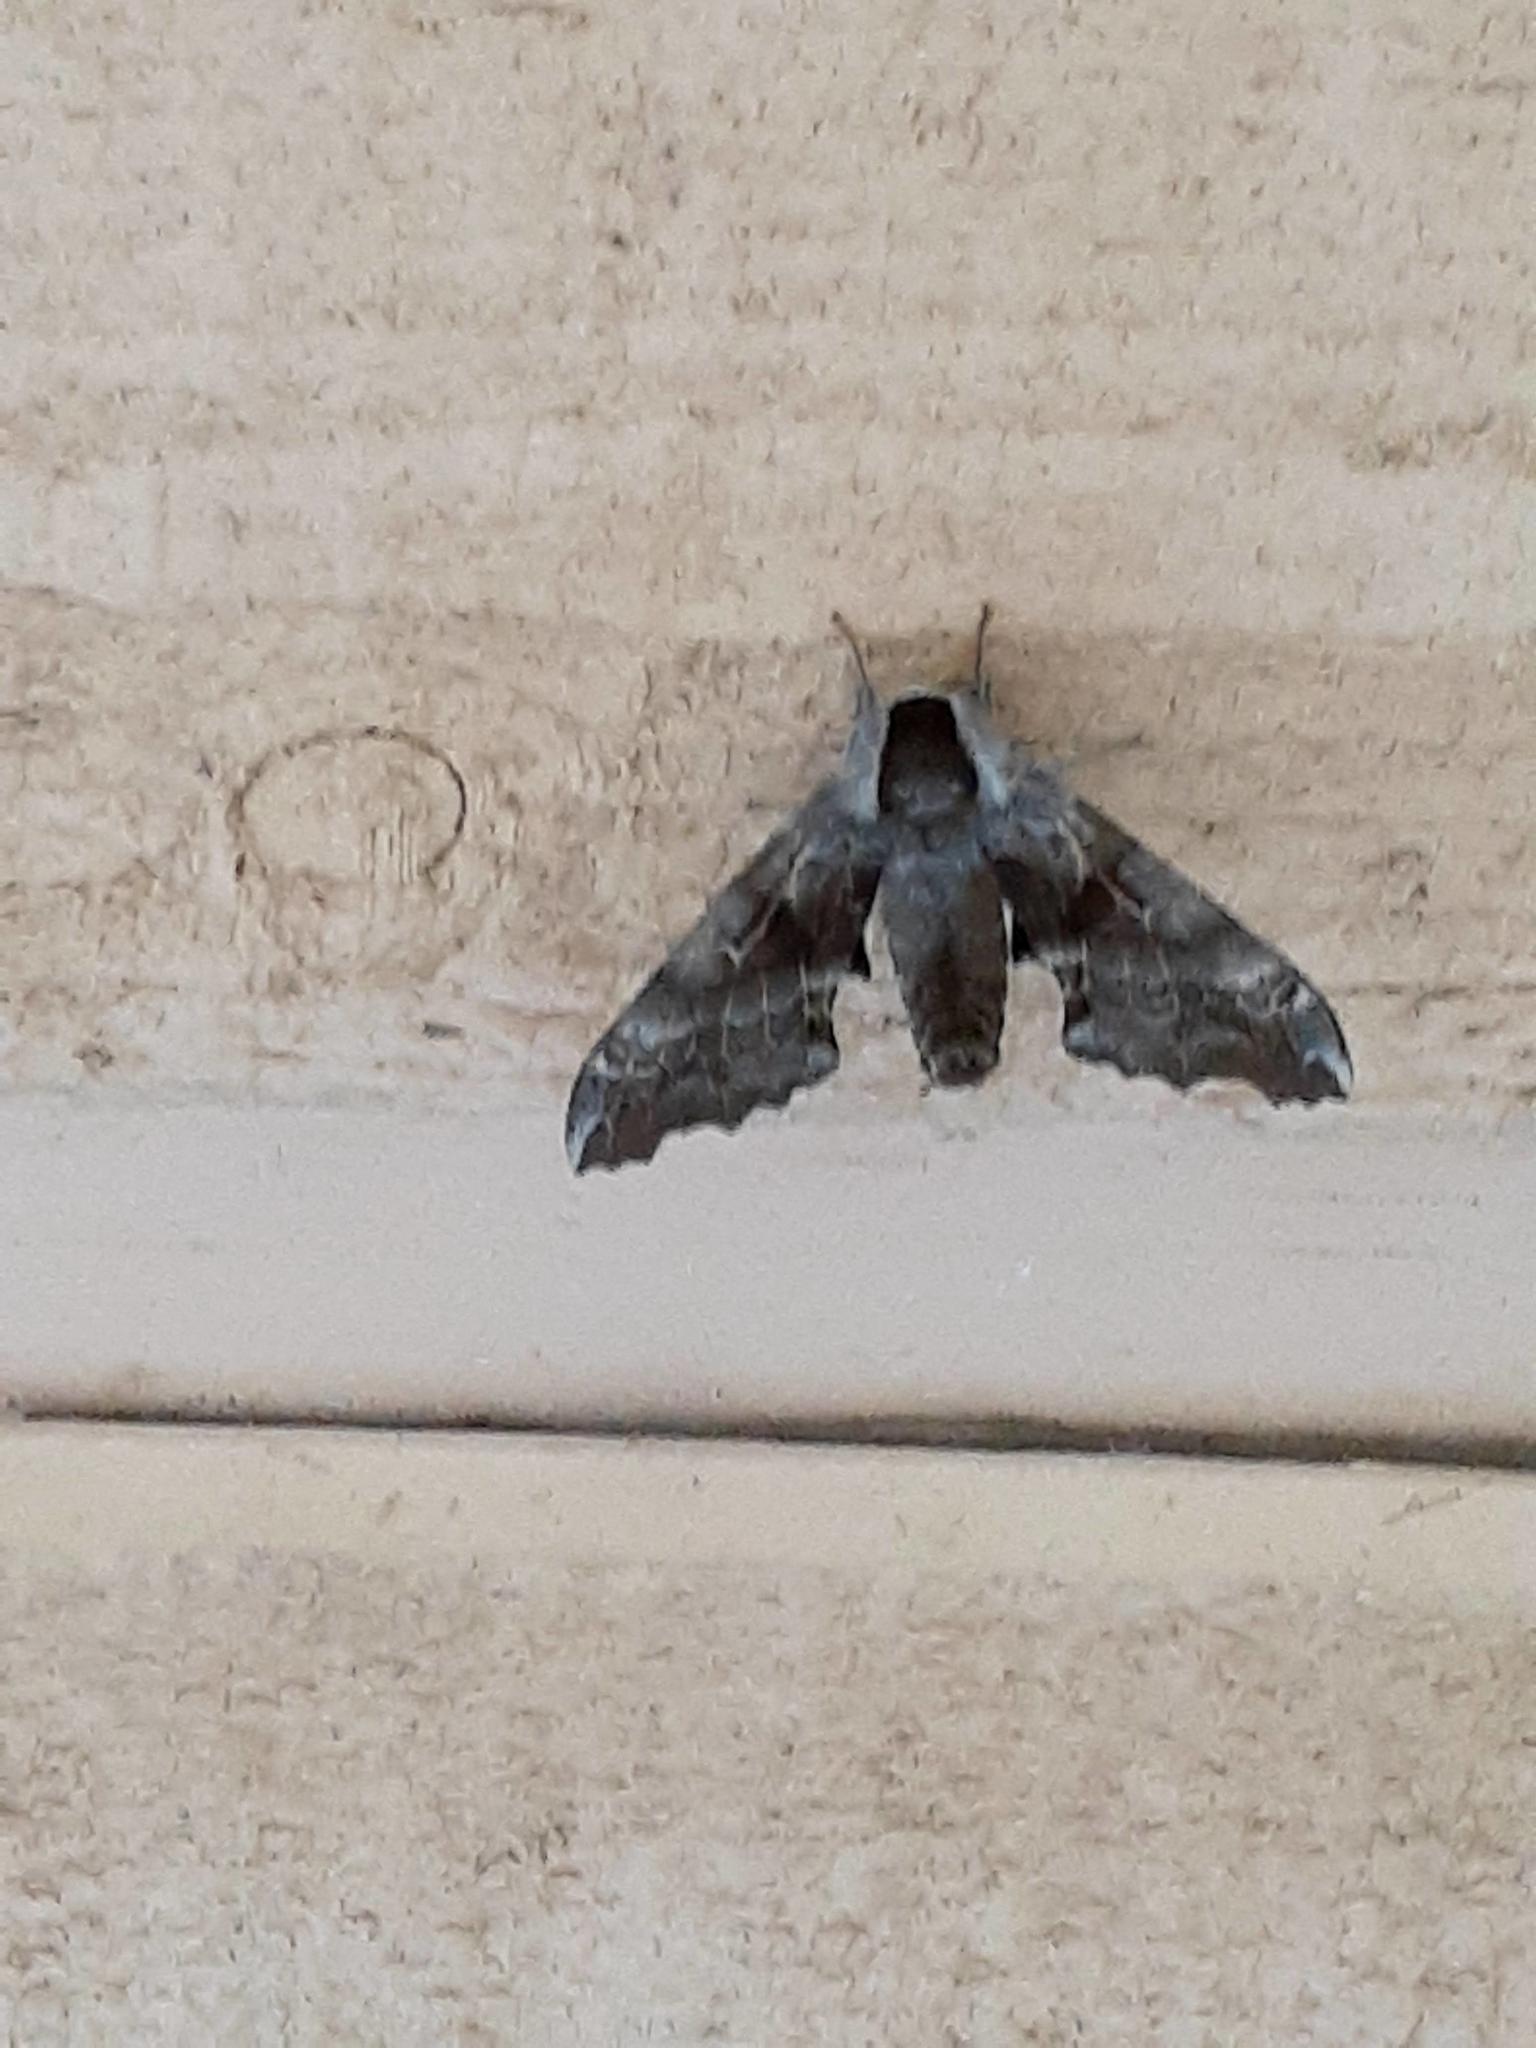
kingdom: Animalia
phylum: Arthropoda
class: Insecta
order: Lepidoptera
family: Sphingidae
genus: Smerinthus
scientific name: Smerinthus cerisyi
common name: Cerisy's sphinx moth
